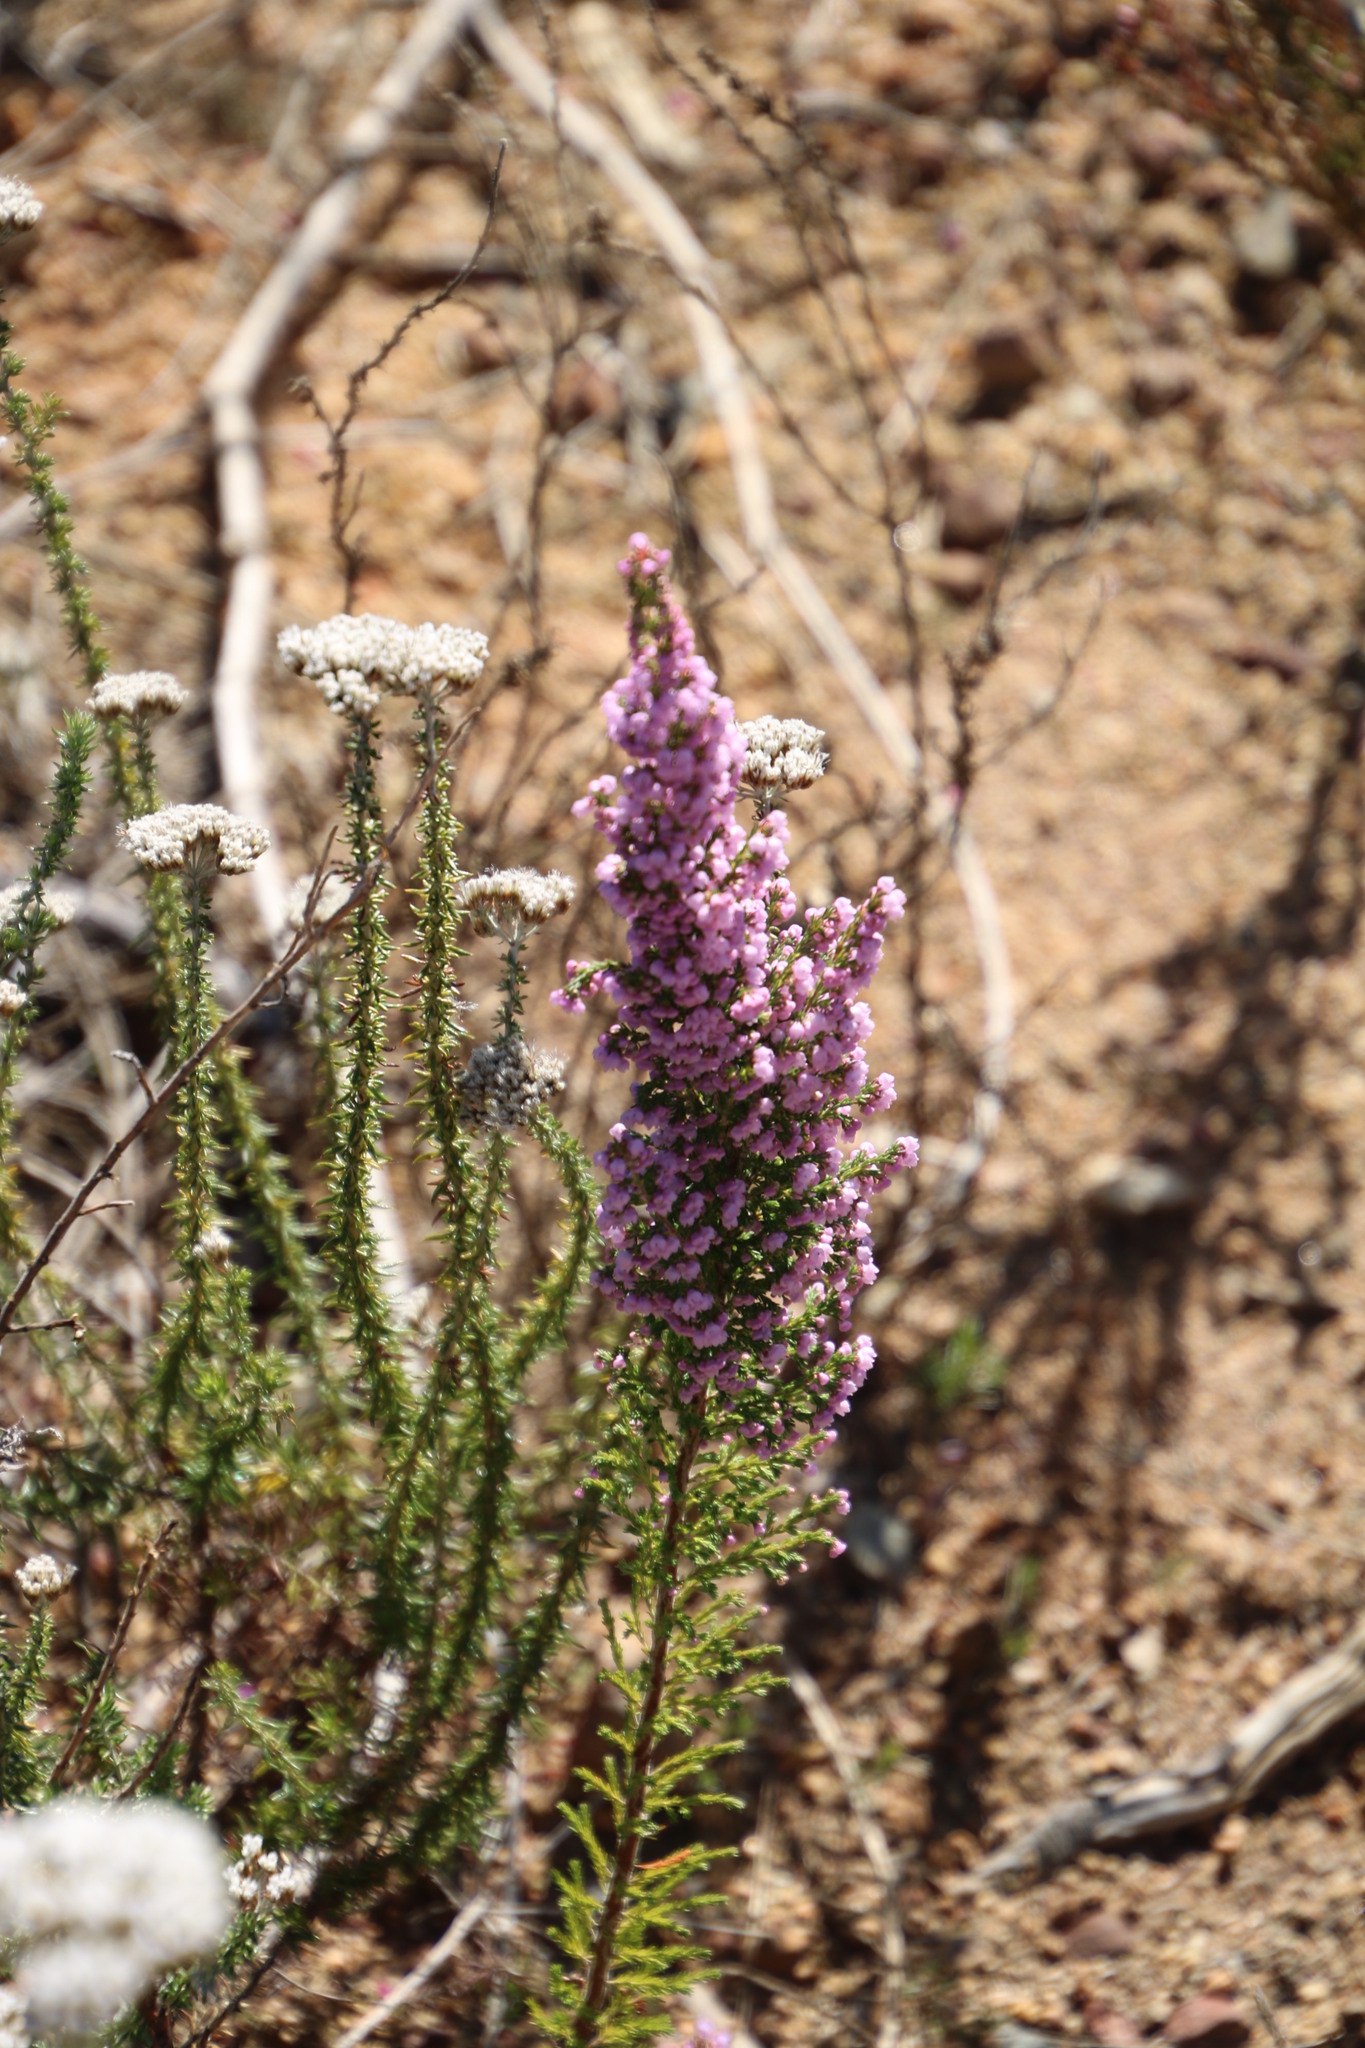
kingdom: Plantae
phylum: Tracheophyta
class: Magnoliopsida
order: Ericales
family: Ericaceae
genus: Erica
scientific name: Erica mauritanica
